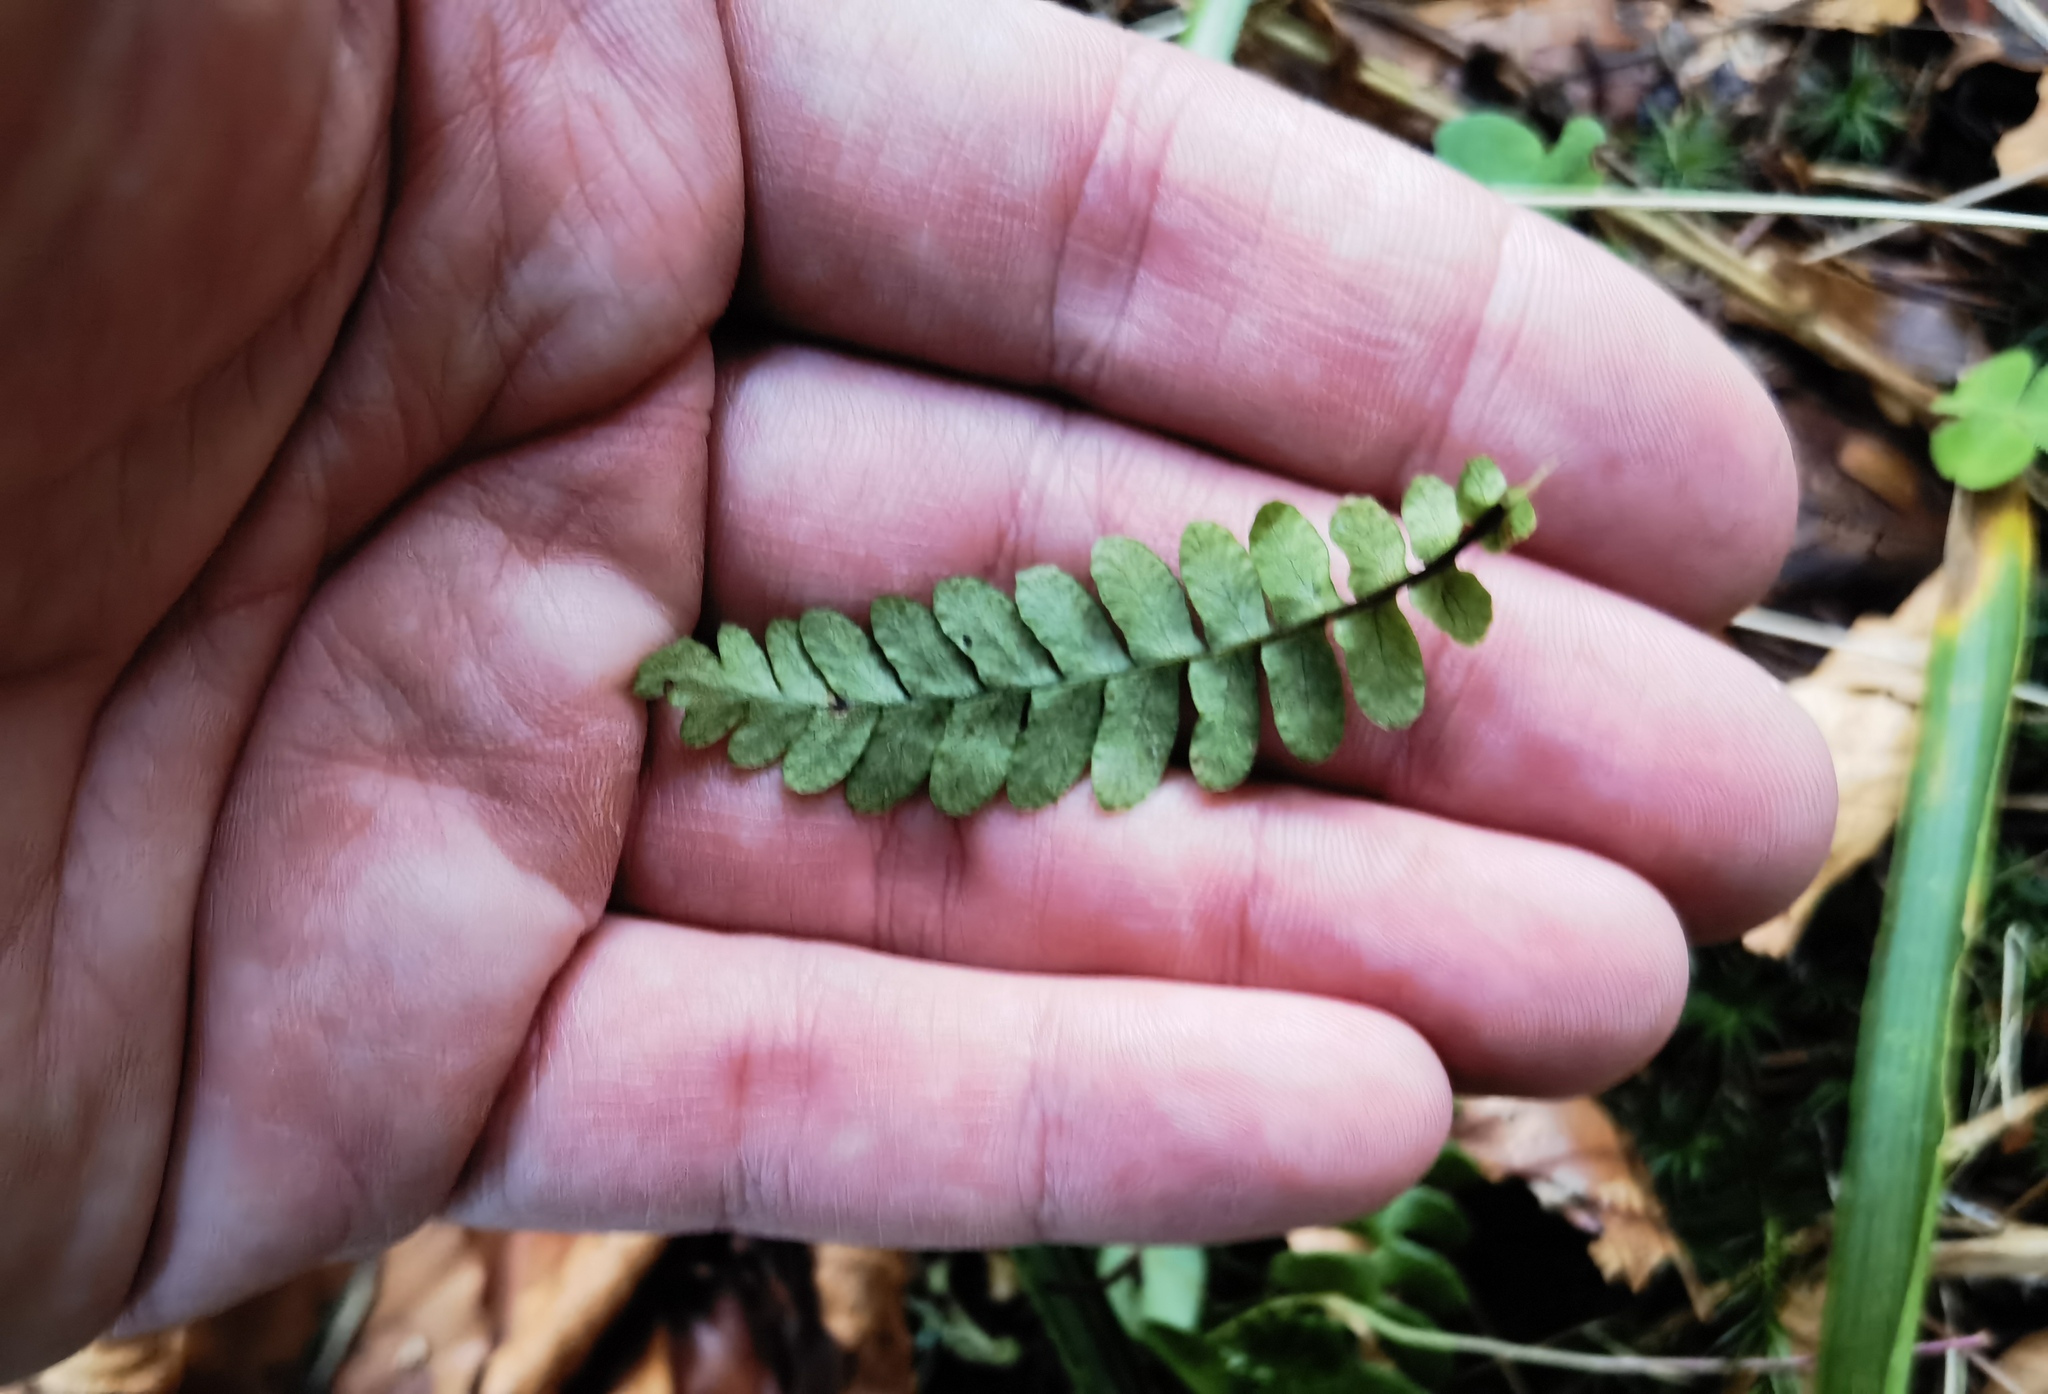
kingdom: Plantae
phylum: Tracheophyta
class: Polypodiopsida
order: Polypodiales
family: Blechnaceae
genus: Struthiopteris
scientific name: Struthiopteris spicant
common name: Deer fern
